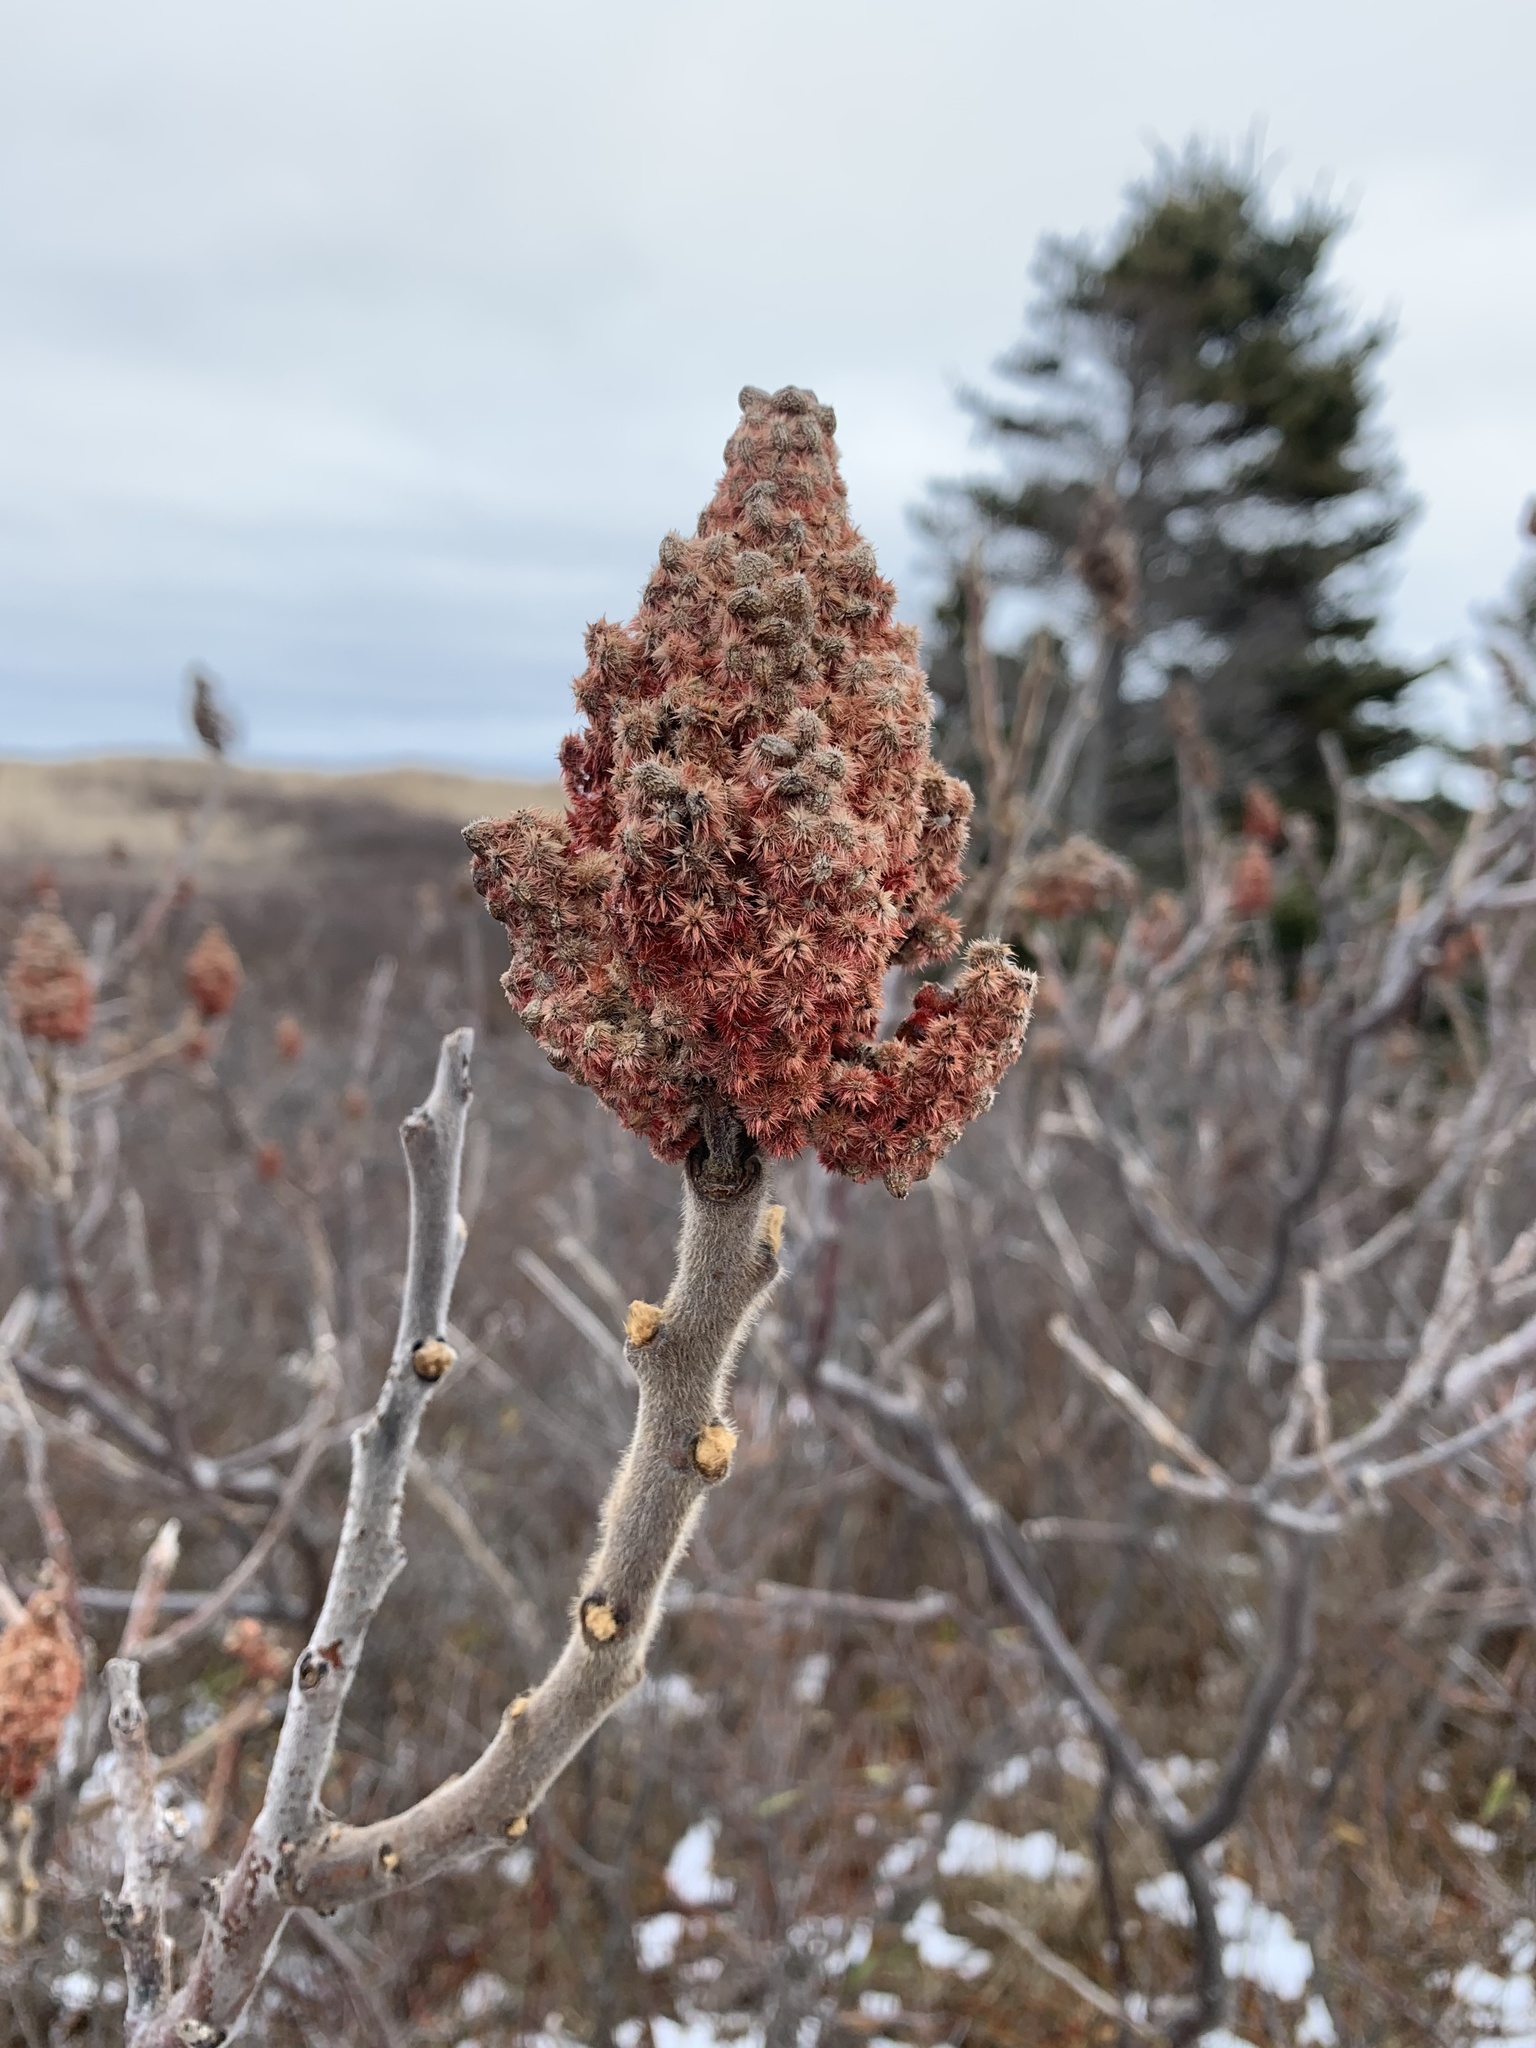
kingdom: Plantae
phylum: Tracheophyta
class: Magnoliopsida
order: Sapindales
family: Anacardiaceae
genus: Rhus
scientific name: Rhus typhina
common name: Staghorn sumac
